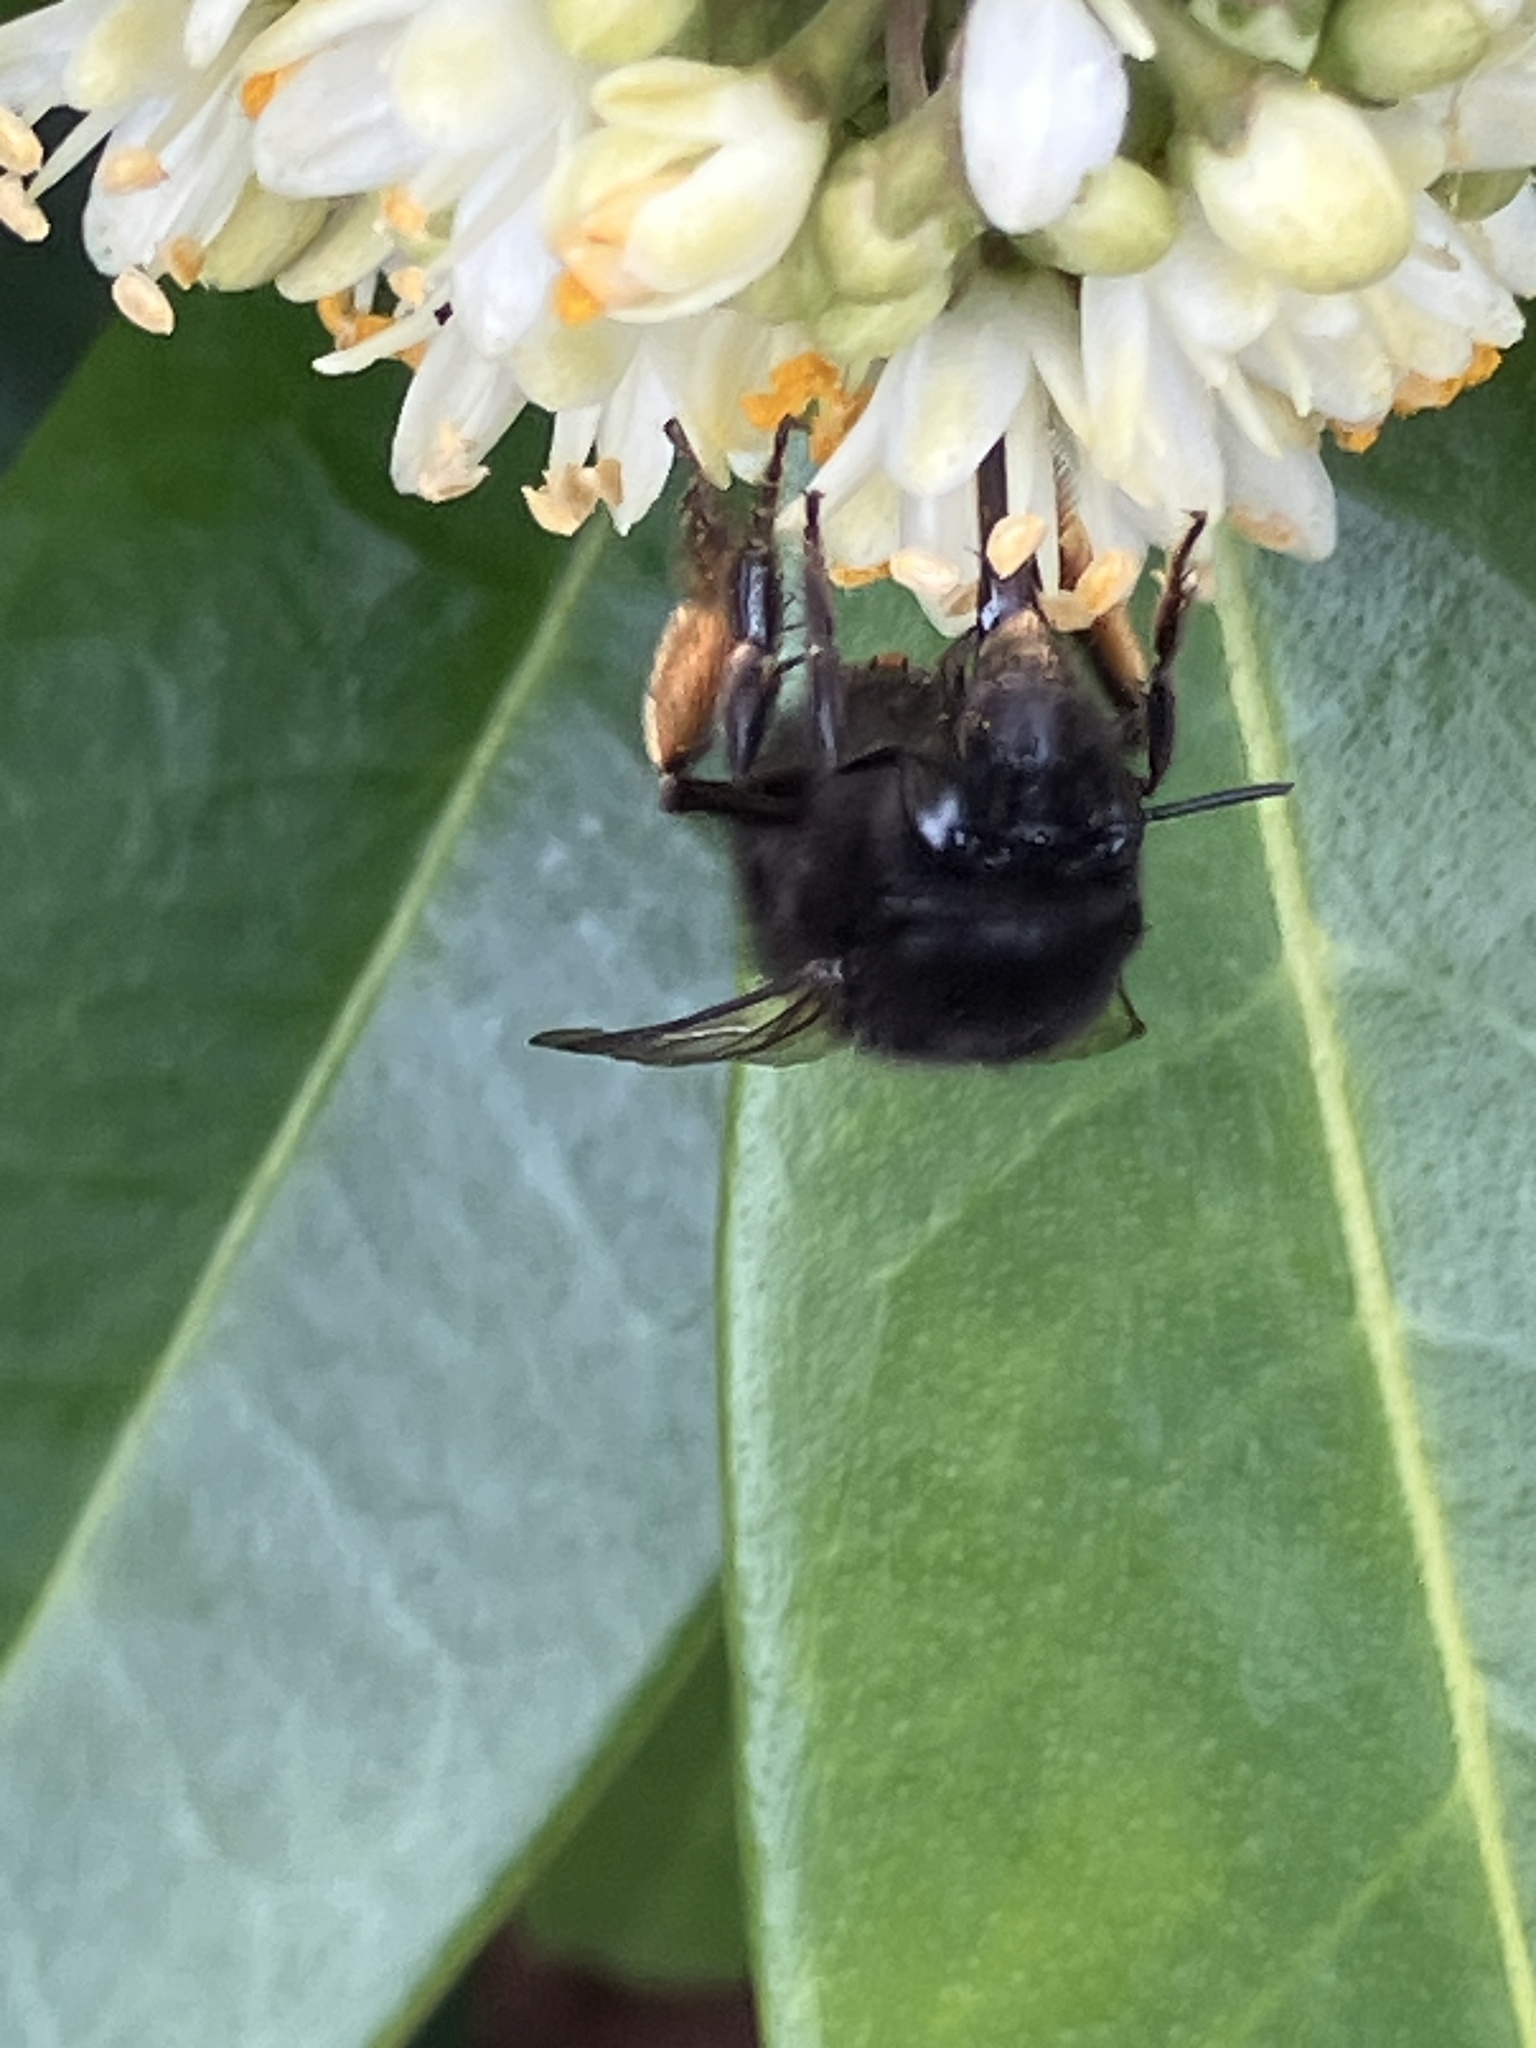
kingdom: Animalia
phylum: Arthropoda
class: Insecta
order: Hymenoptera
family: Apidae
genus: Anthophora
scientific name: Anthophora plumipes
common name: Hairy-footed flower bee
